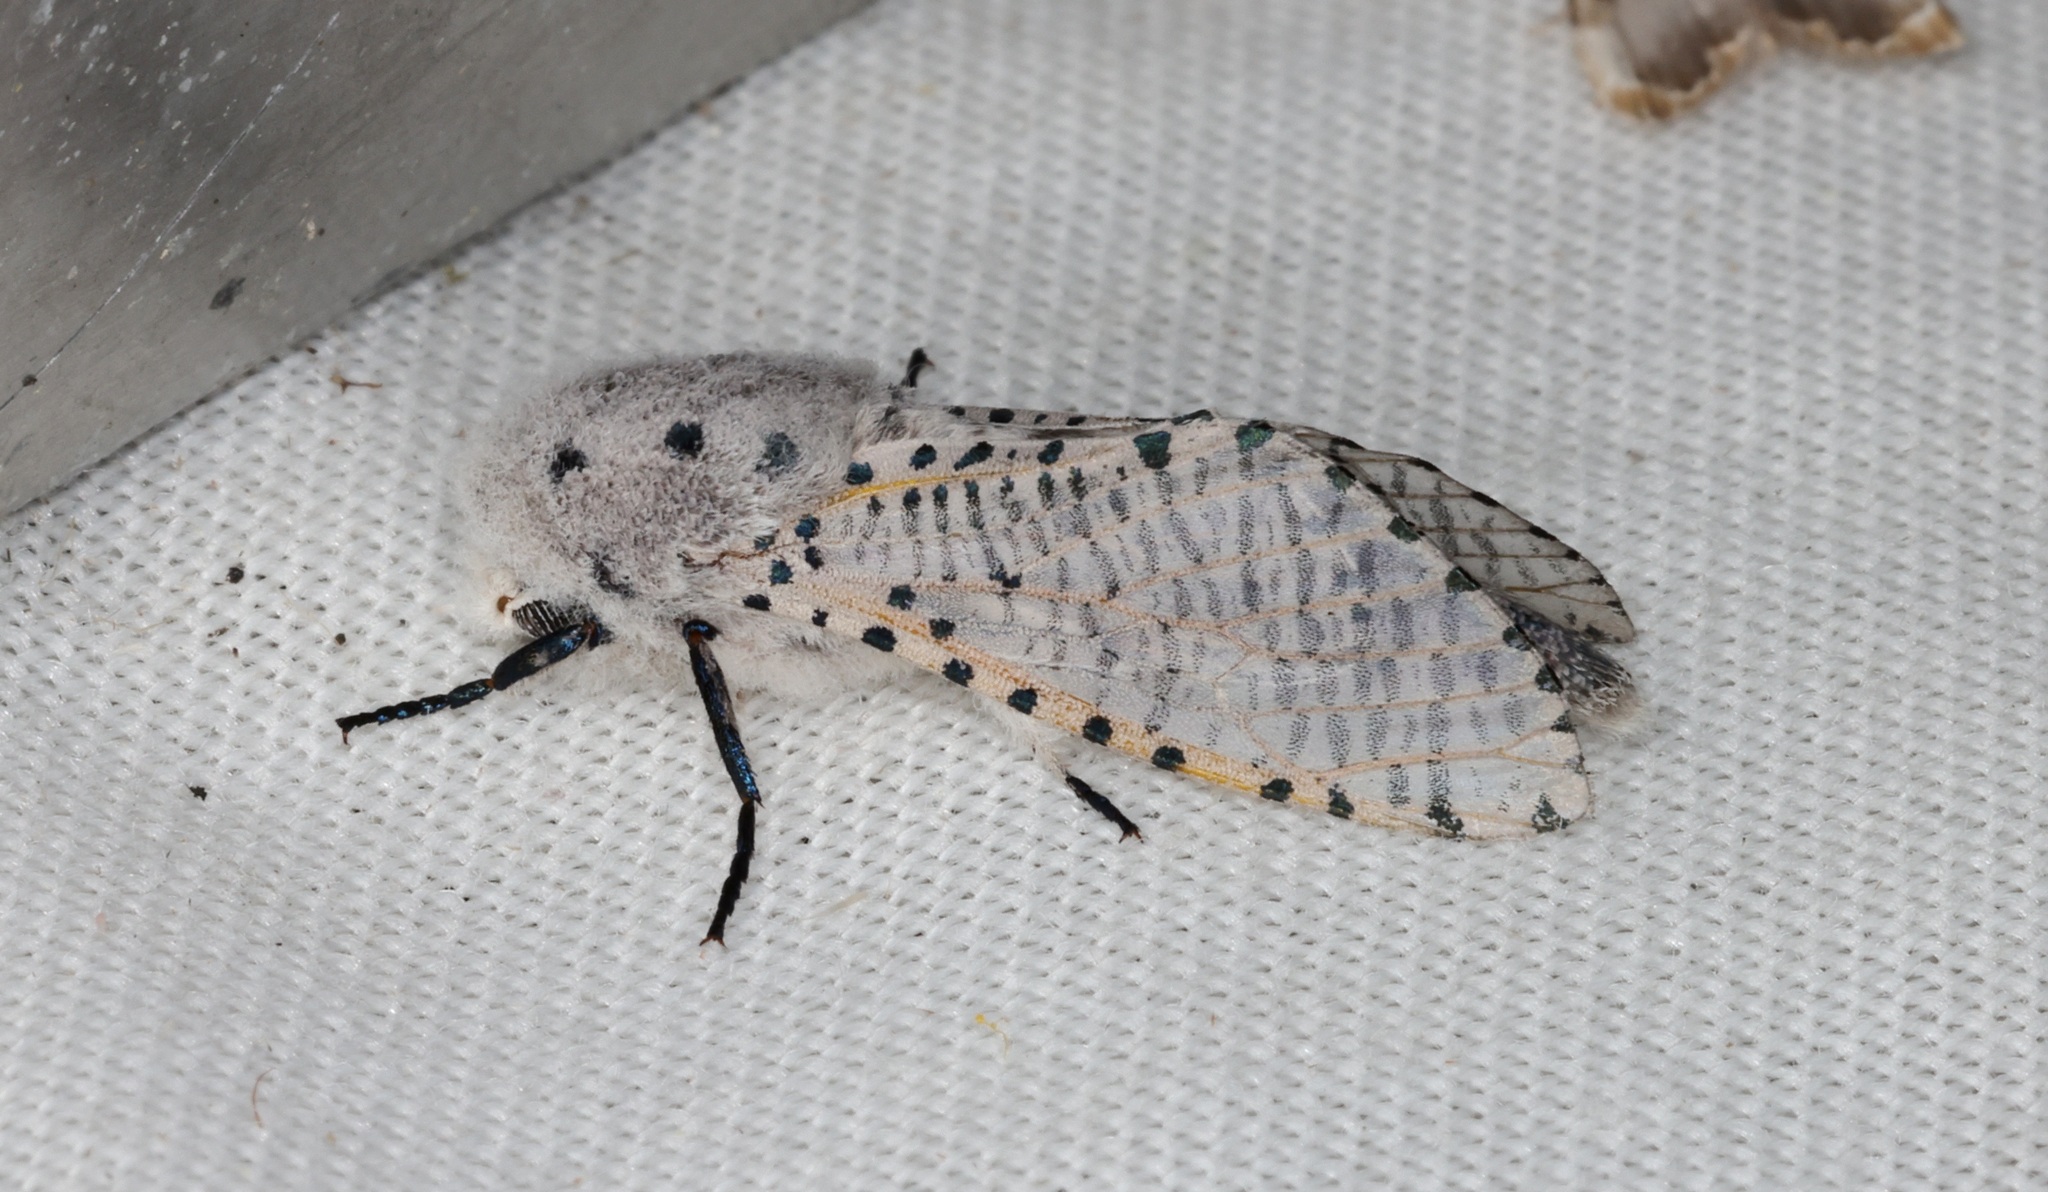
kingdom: Animalia
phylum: Arthropoda
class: Insecta
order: Lepidoptera
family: Cossidae
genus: Polyphagozerra
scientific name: Polyphagozerra coffeae
